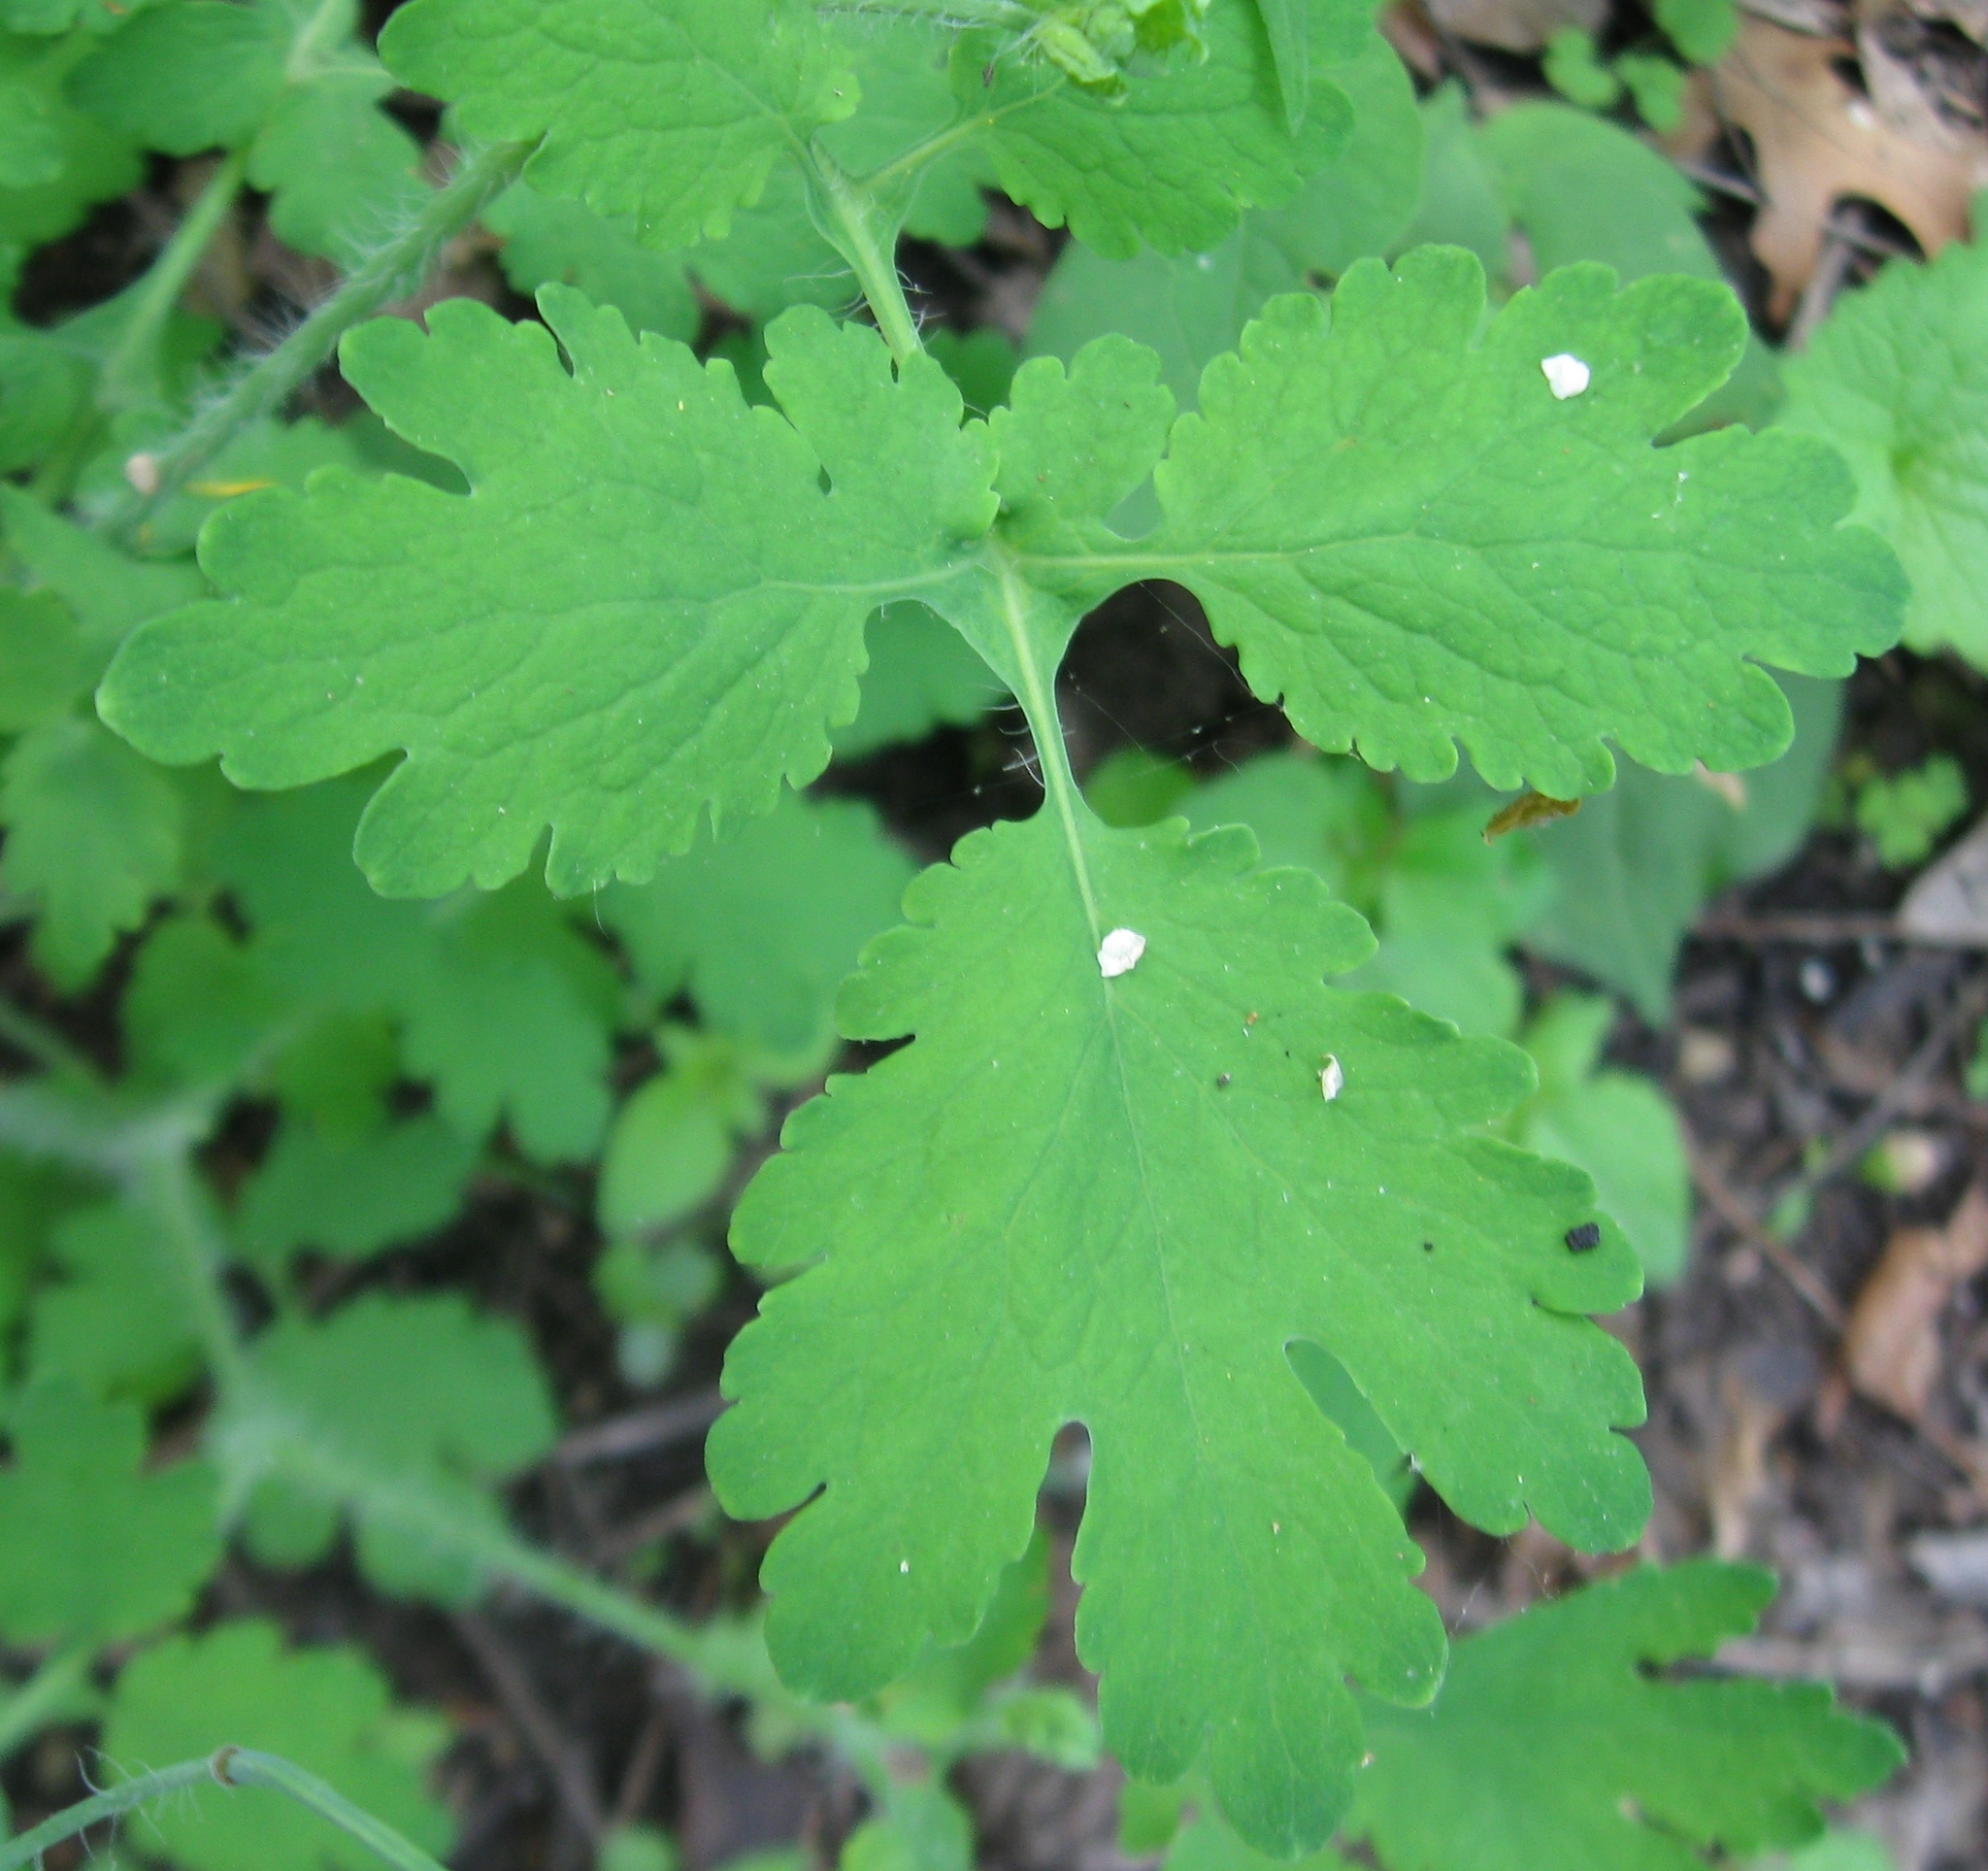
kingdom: Plantae
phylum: Tracheophyta
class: Magnoliopsida
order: Ranunculales
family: Papaveraceae
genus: Chelidonium
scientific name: Chelidonium majus
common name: Greater celandine
